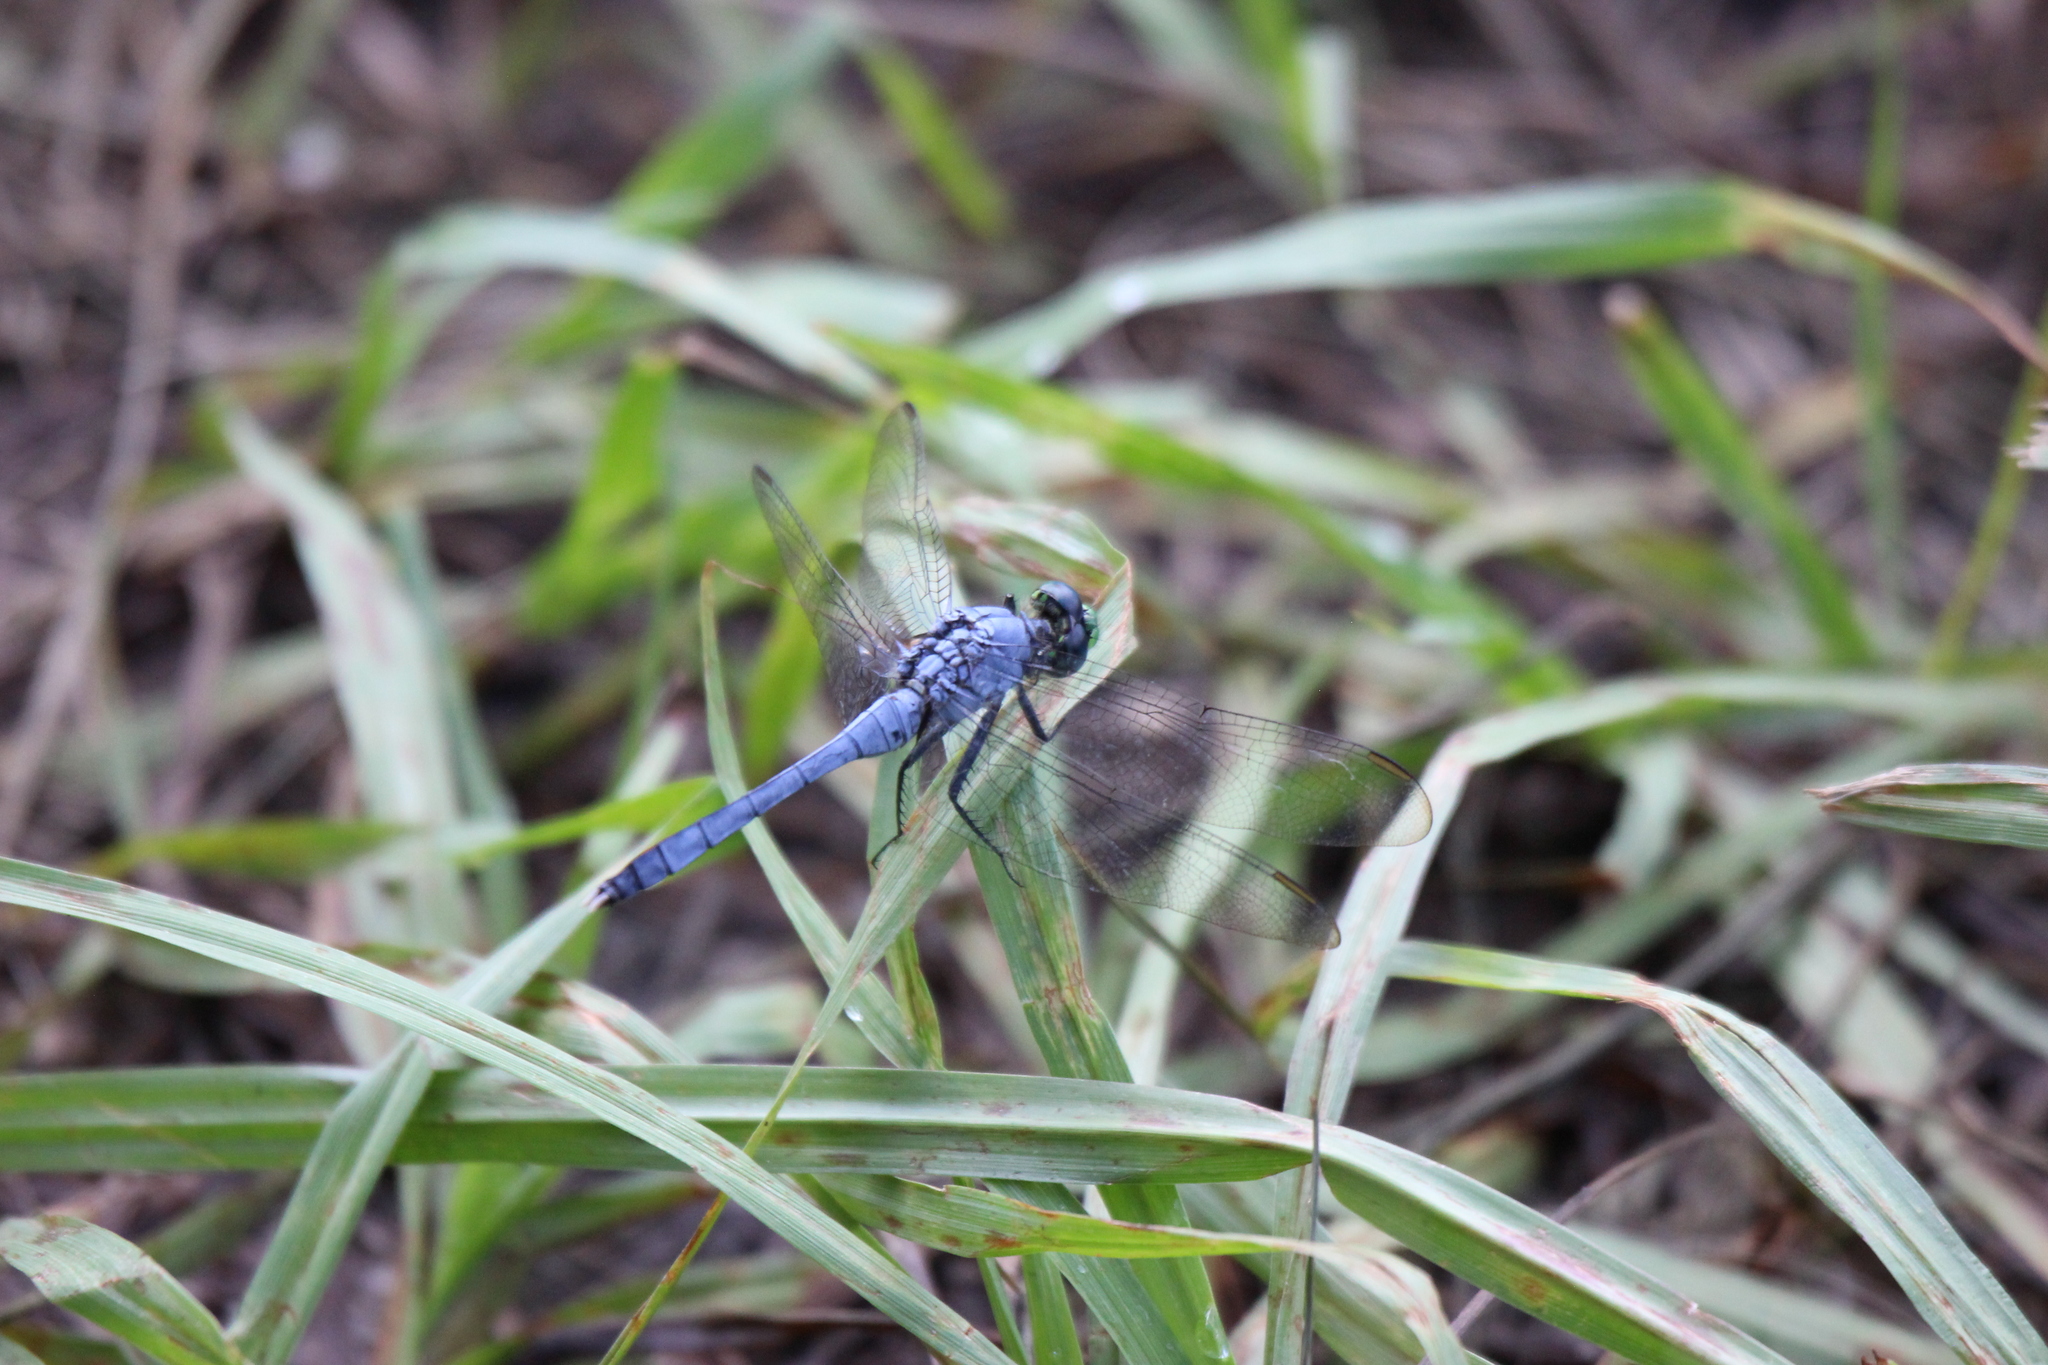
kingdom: Animalia
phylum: Arthropoda
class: Insecta
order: Odonata
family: Libellulidae
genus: Erythemis
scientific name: Erythemis simplicicollis
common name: Eastern pondhawk
